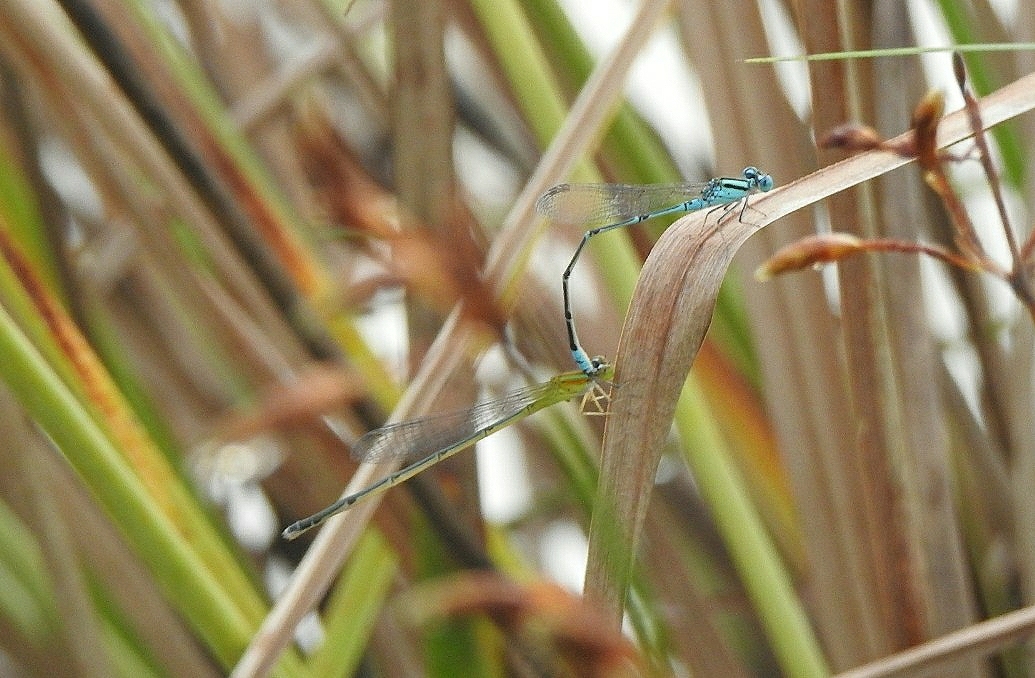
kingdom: Animalia
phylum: Arthropoda
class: Insecta
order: Odonata
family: Coenagrionidae
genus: Pseudagrion
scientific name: Pseudagrion microcephalum
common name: Blue riverdamsel
